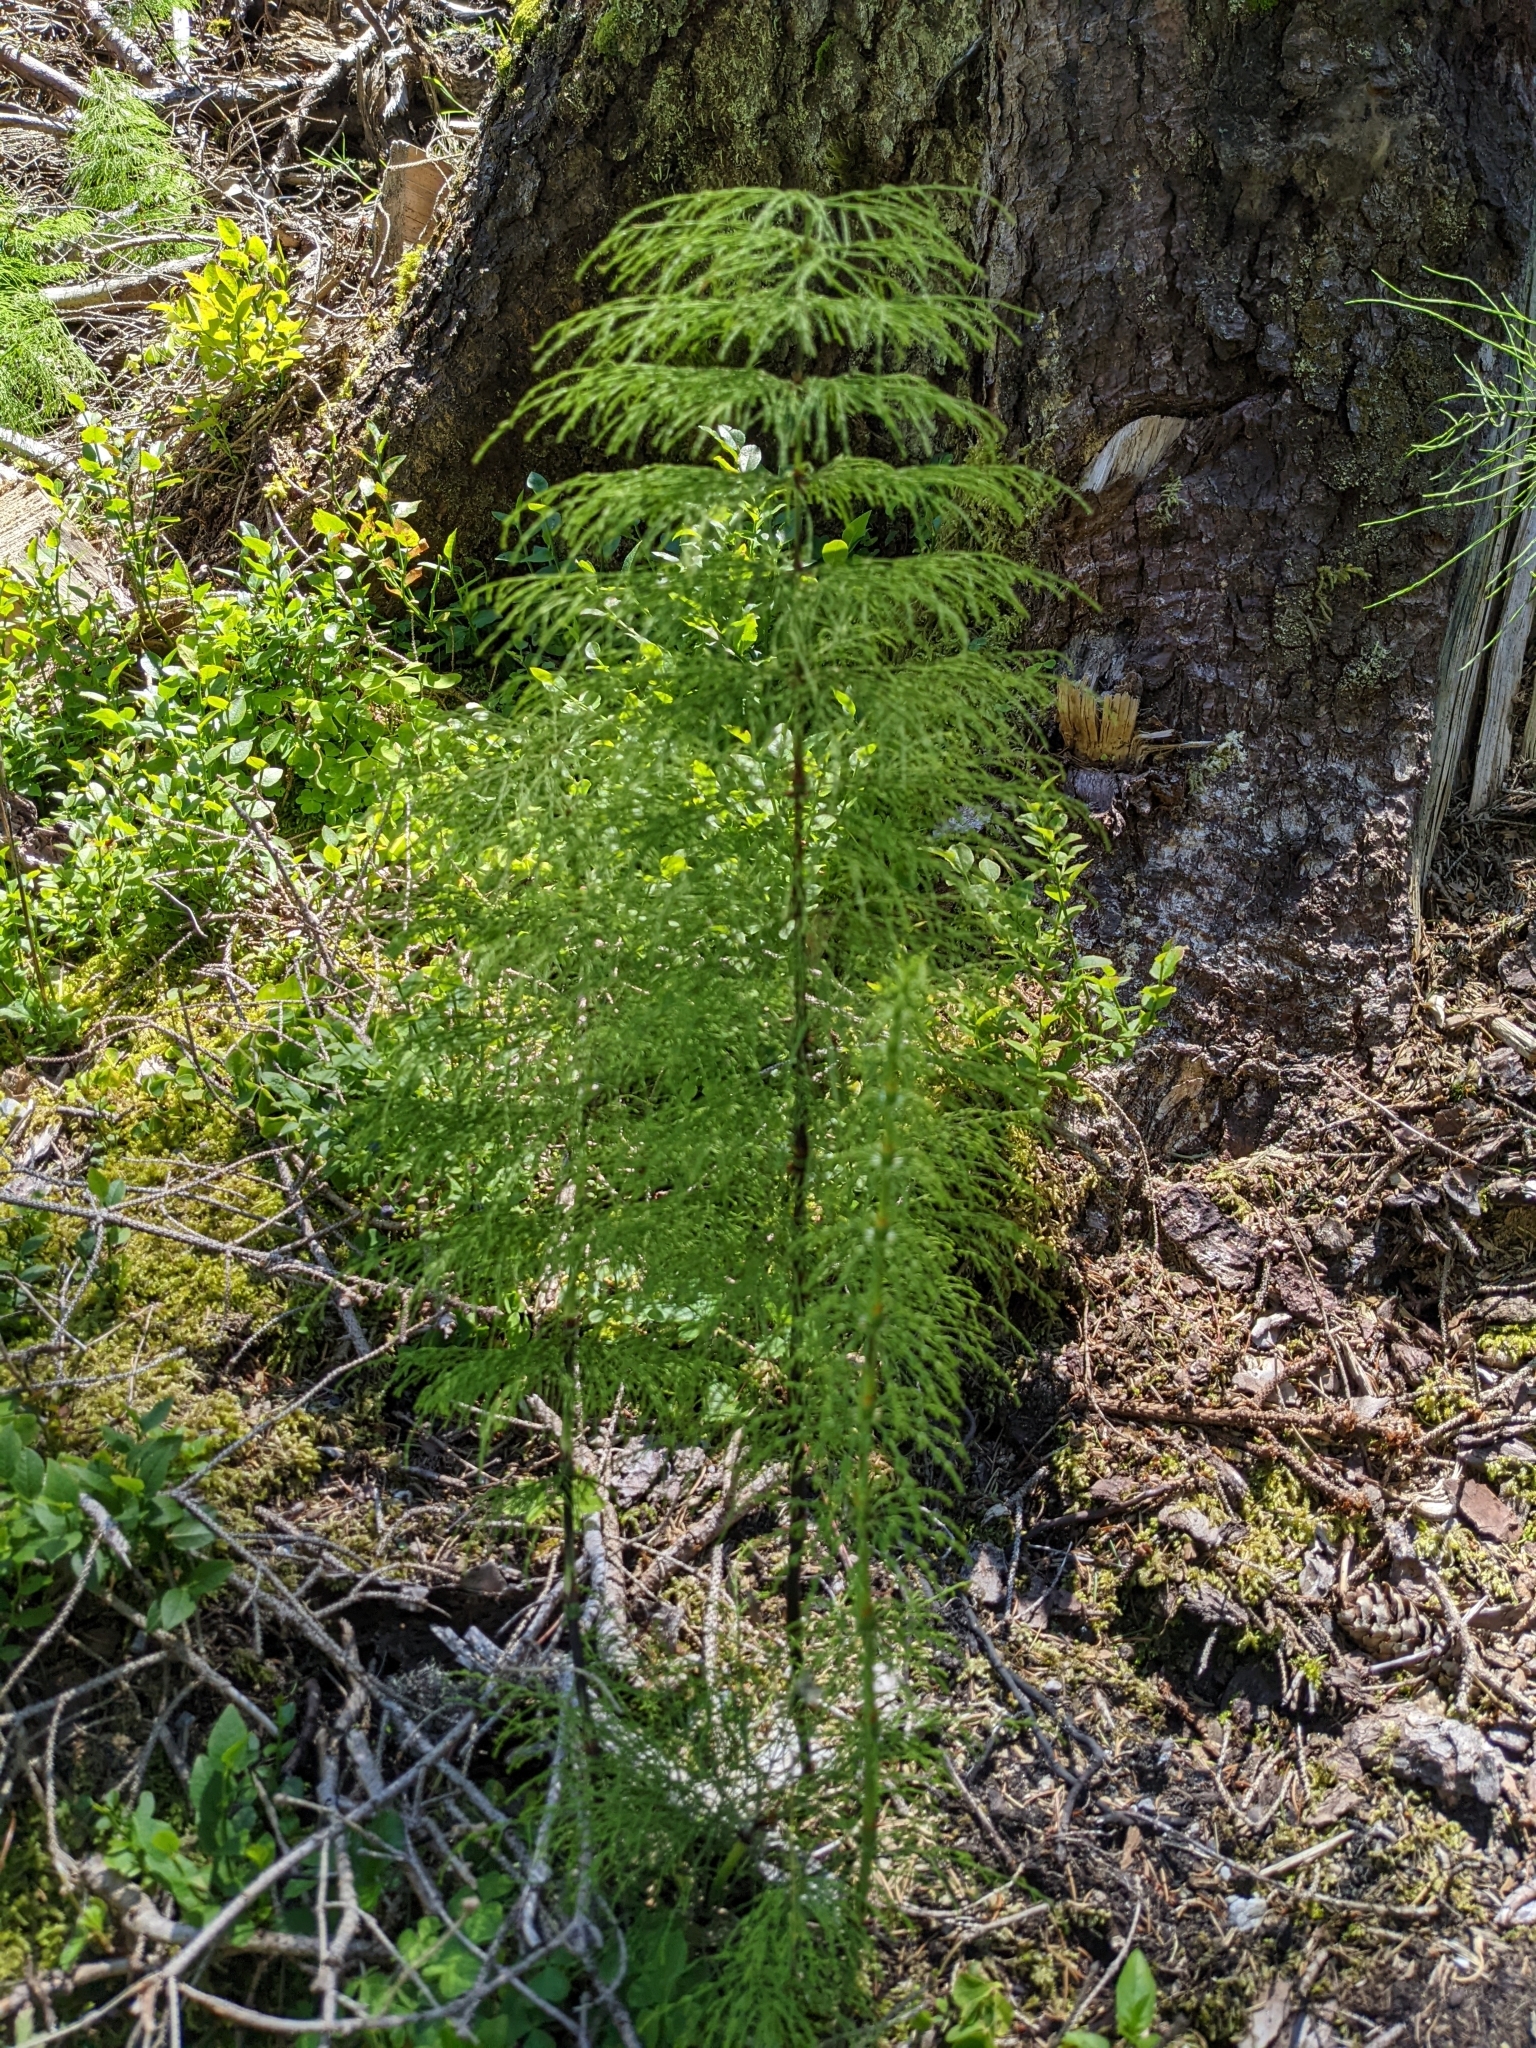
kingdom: Plantae
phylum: Tracheophyta
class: Polypodiopsida
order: Equisetales
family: Equisetaceae
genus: Equisetum
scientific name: Equisetum sylvaticum
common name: Wood horsetail
